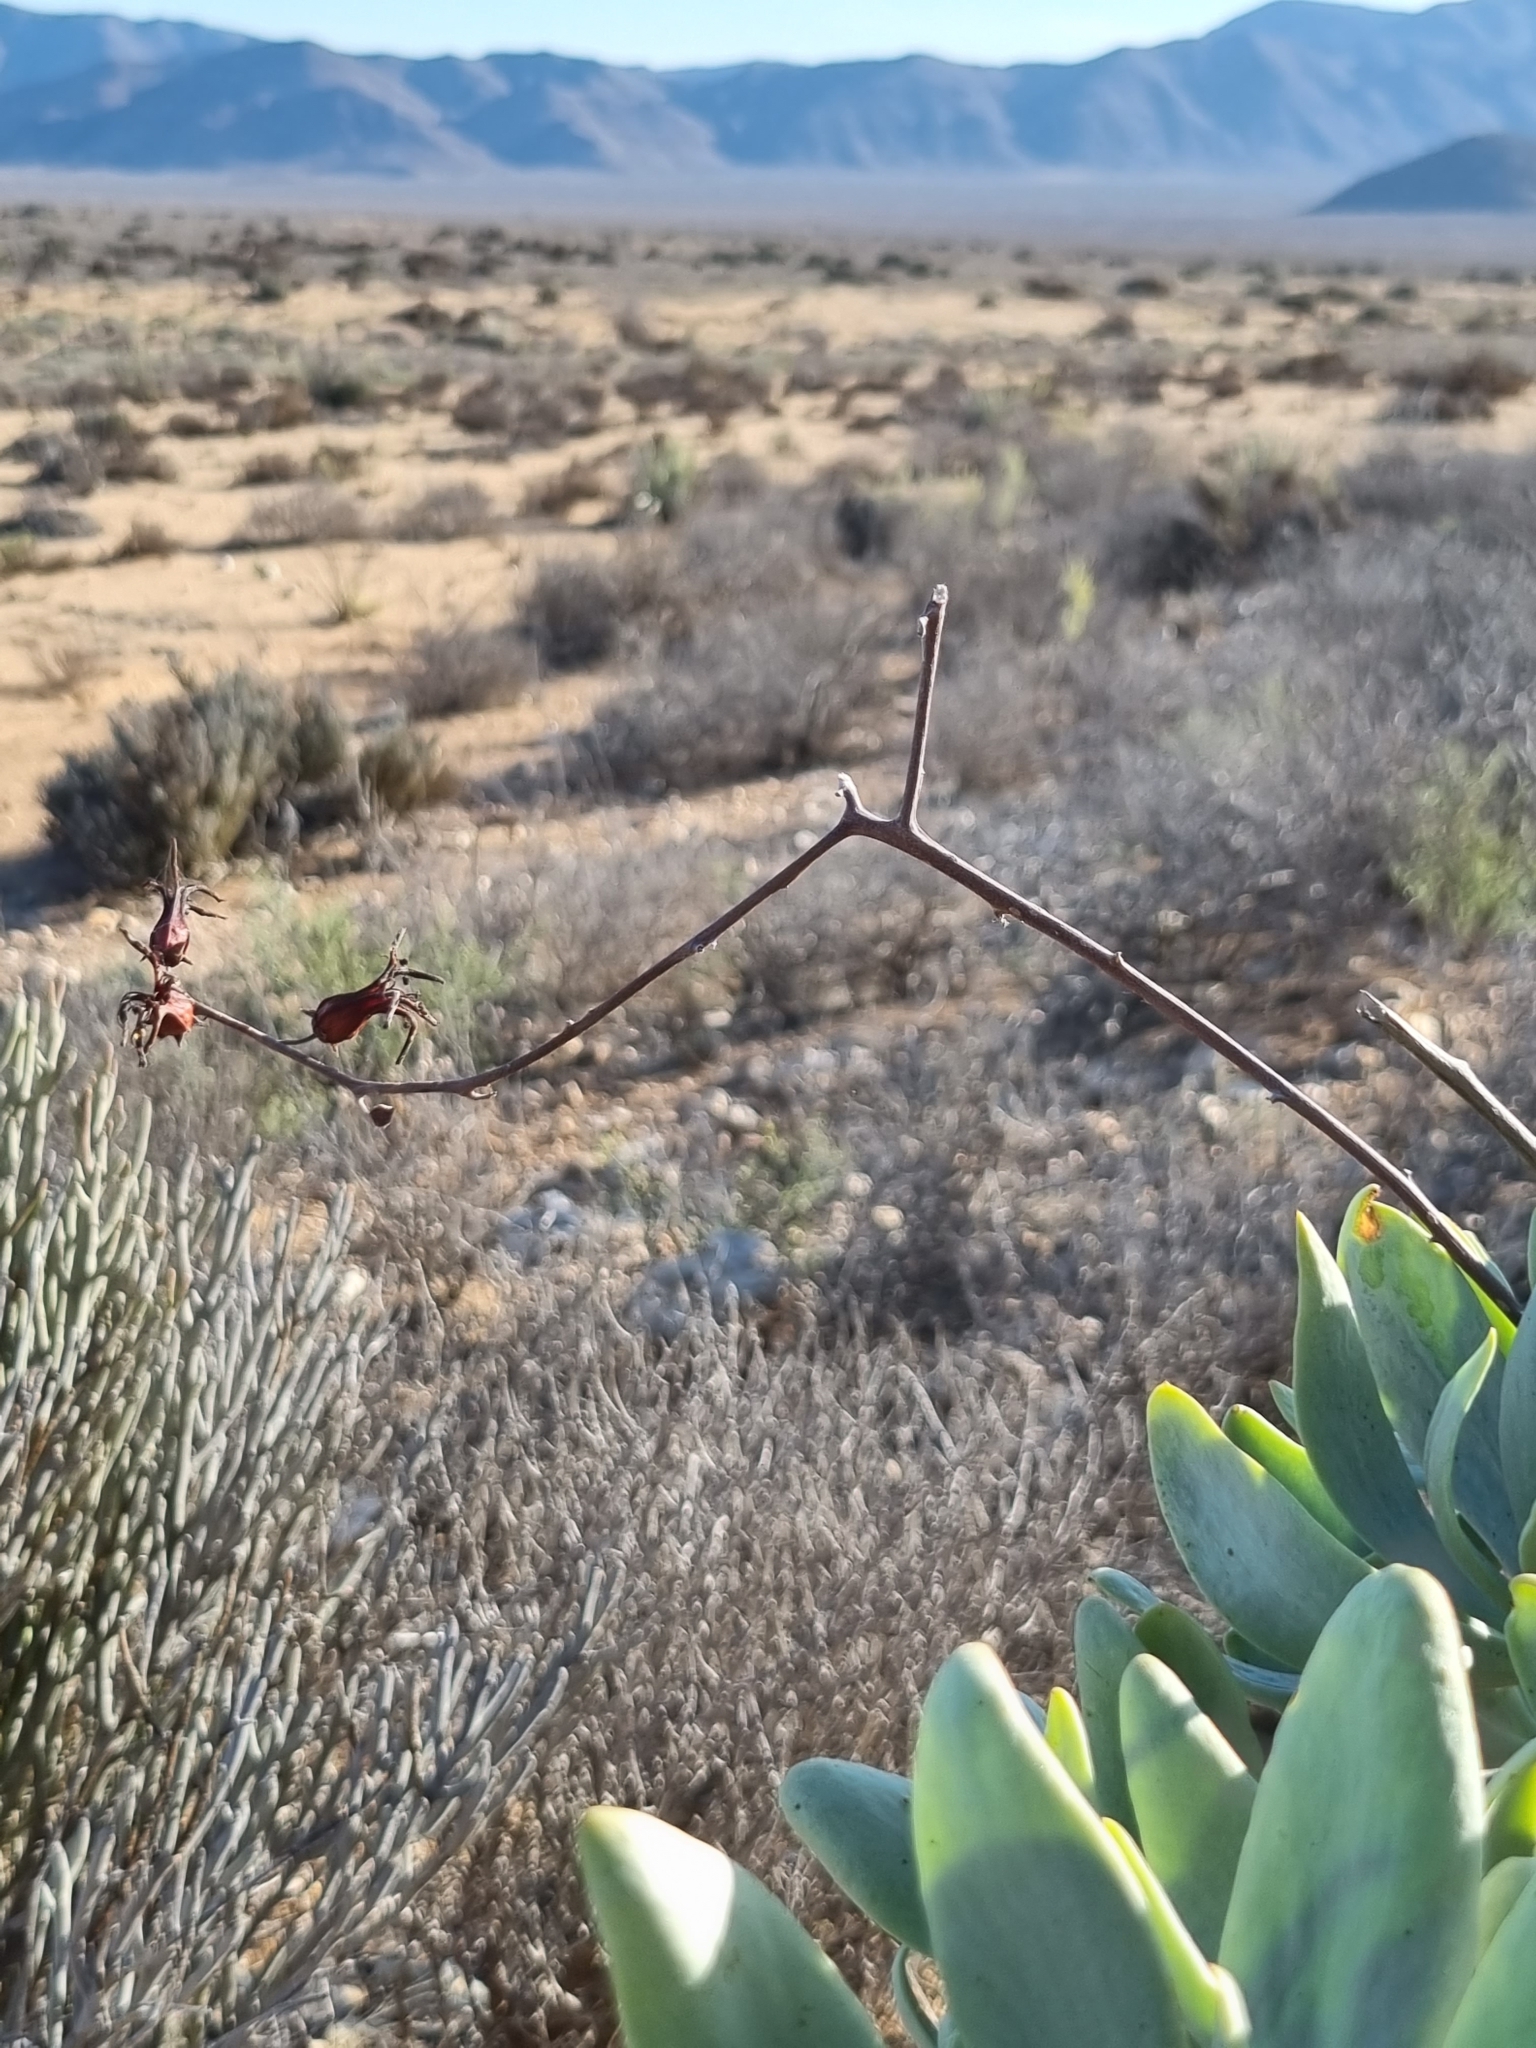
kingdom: Plantae
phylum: Tracheophyta
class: Magnoliopsida
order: Saxifragales
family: Crassulaceae
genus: Tylecodon
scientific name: Tylecodon paniculatus
